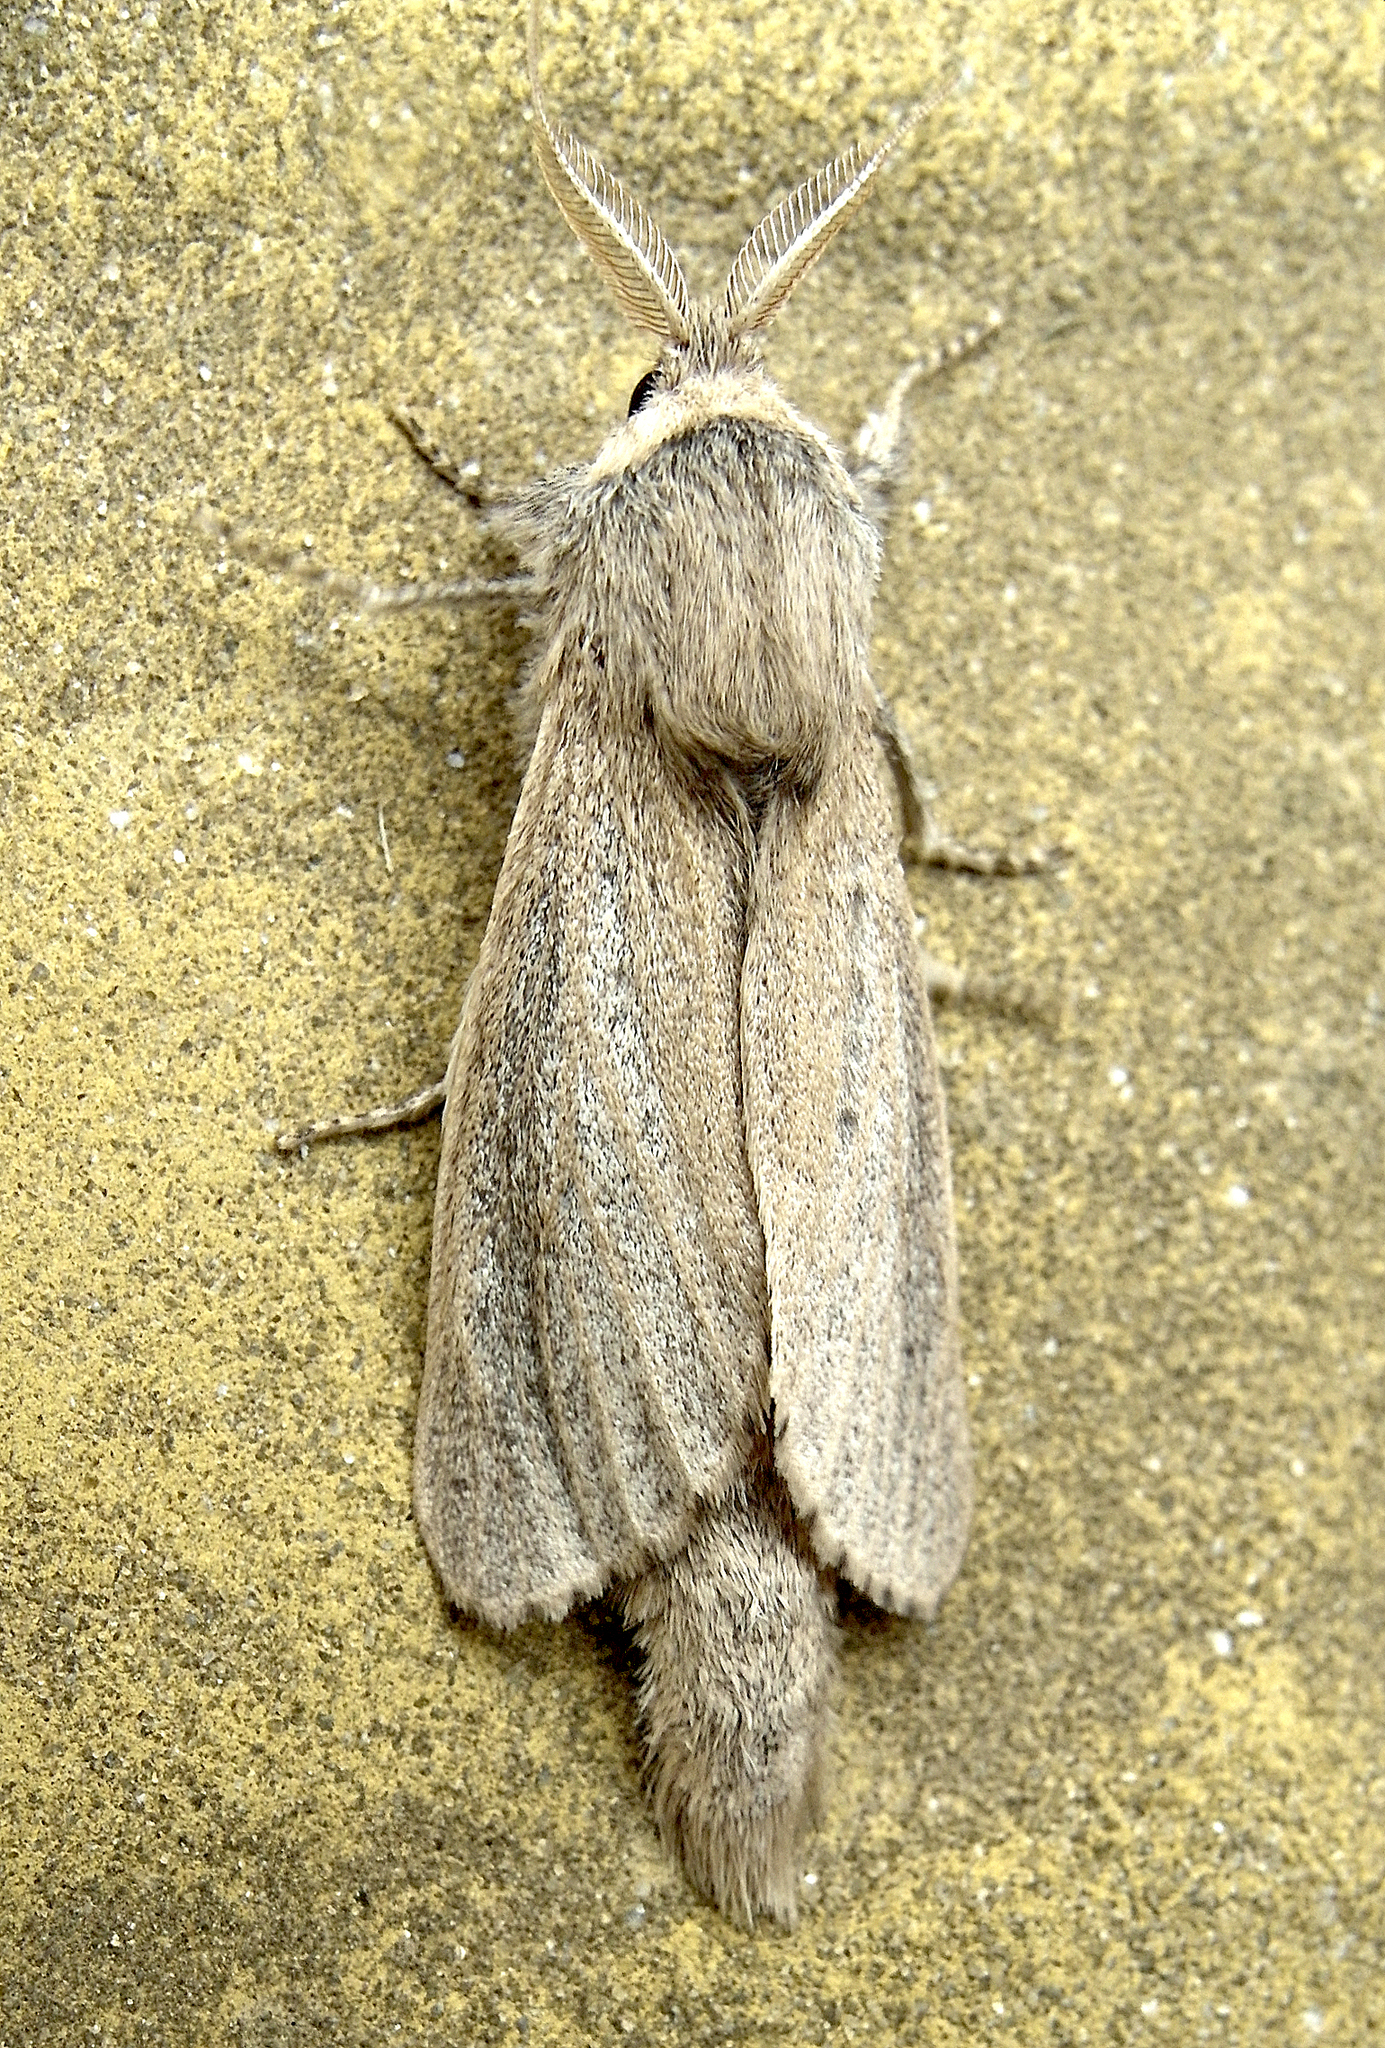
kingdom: Animalia
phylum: Arthropoda
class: Insecta
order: Lepidoptera
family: Cossidae
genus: Phragmataecia
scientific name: Phragmataecia castaneae
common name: Reed leopard
